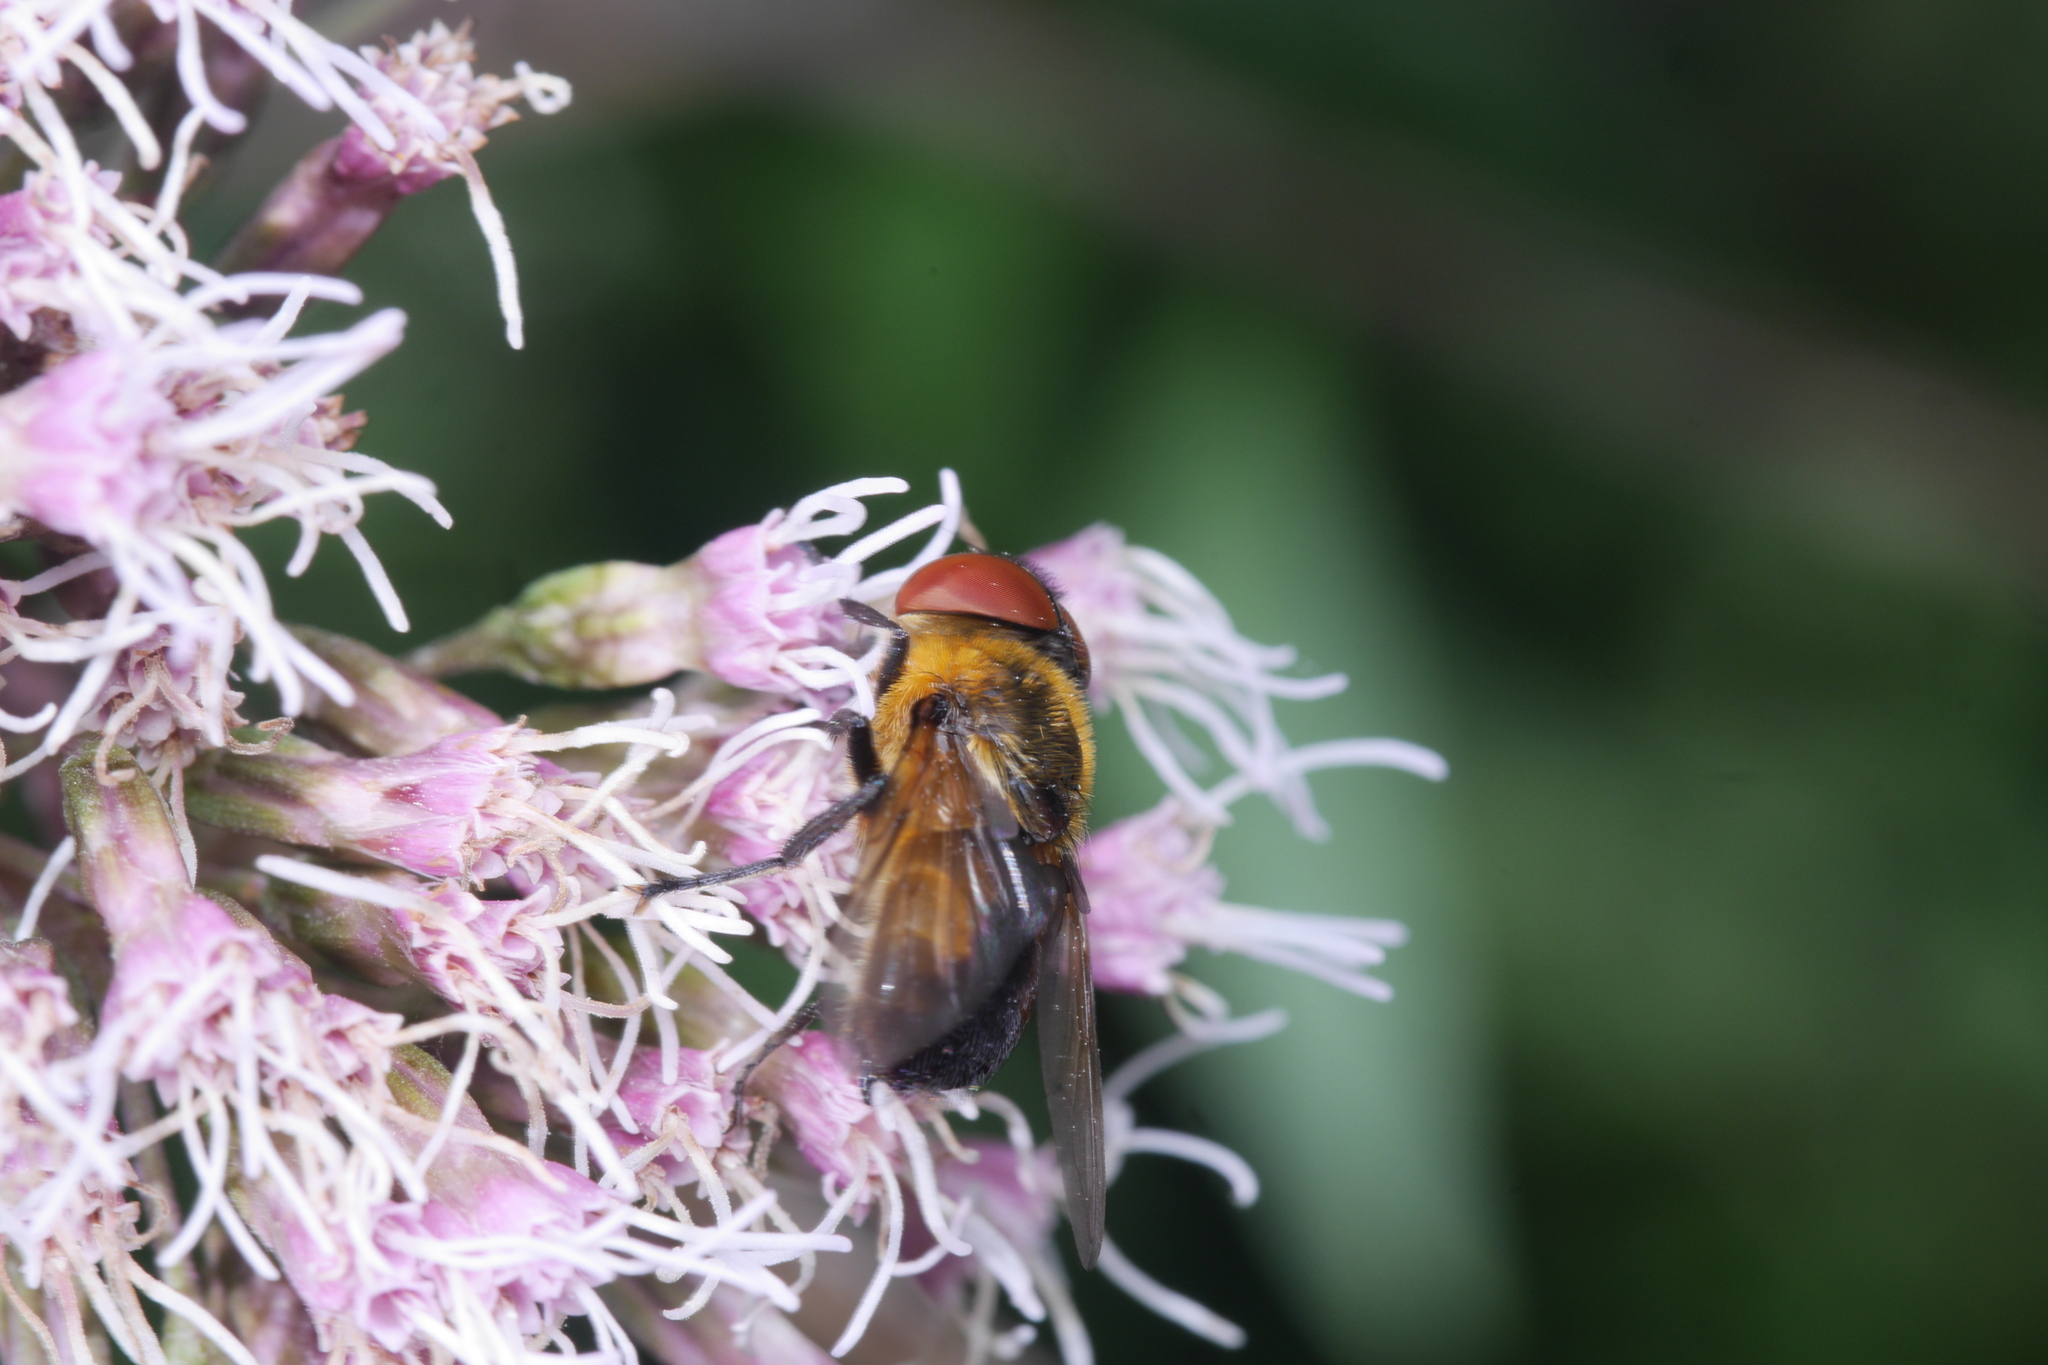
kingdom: Animalia
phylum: Arthropoda
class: Insecta
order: Diptera
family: Tachinidae
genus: Phasia
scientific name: Phasia hemiptera
